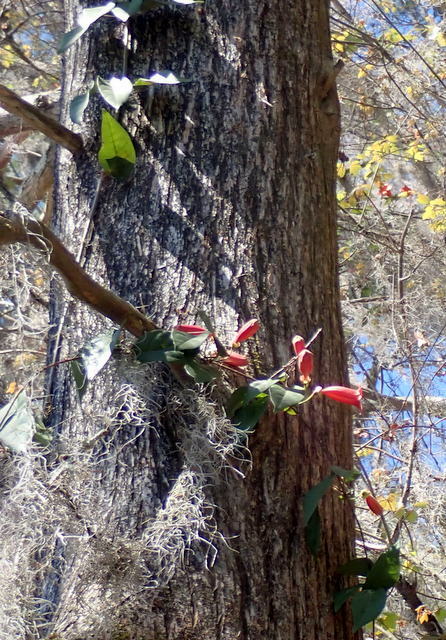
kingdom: Plantae
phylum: Tracheophyta
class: Magnoliopsida
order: Lamiales
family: Bignoniaceae
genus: Bignonia
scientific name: Bignonia capreolata
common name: Crossvine
